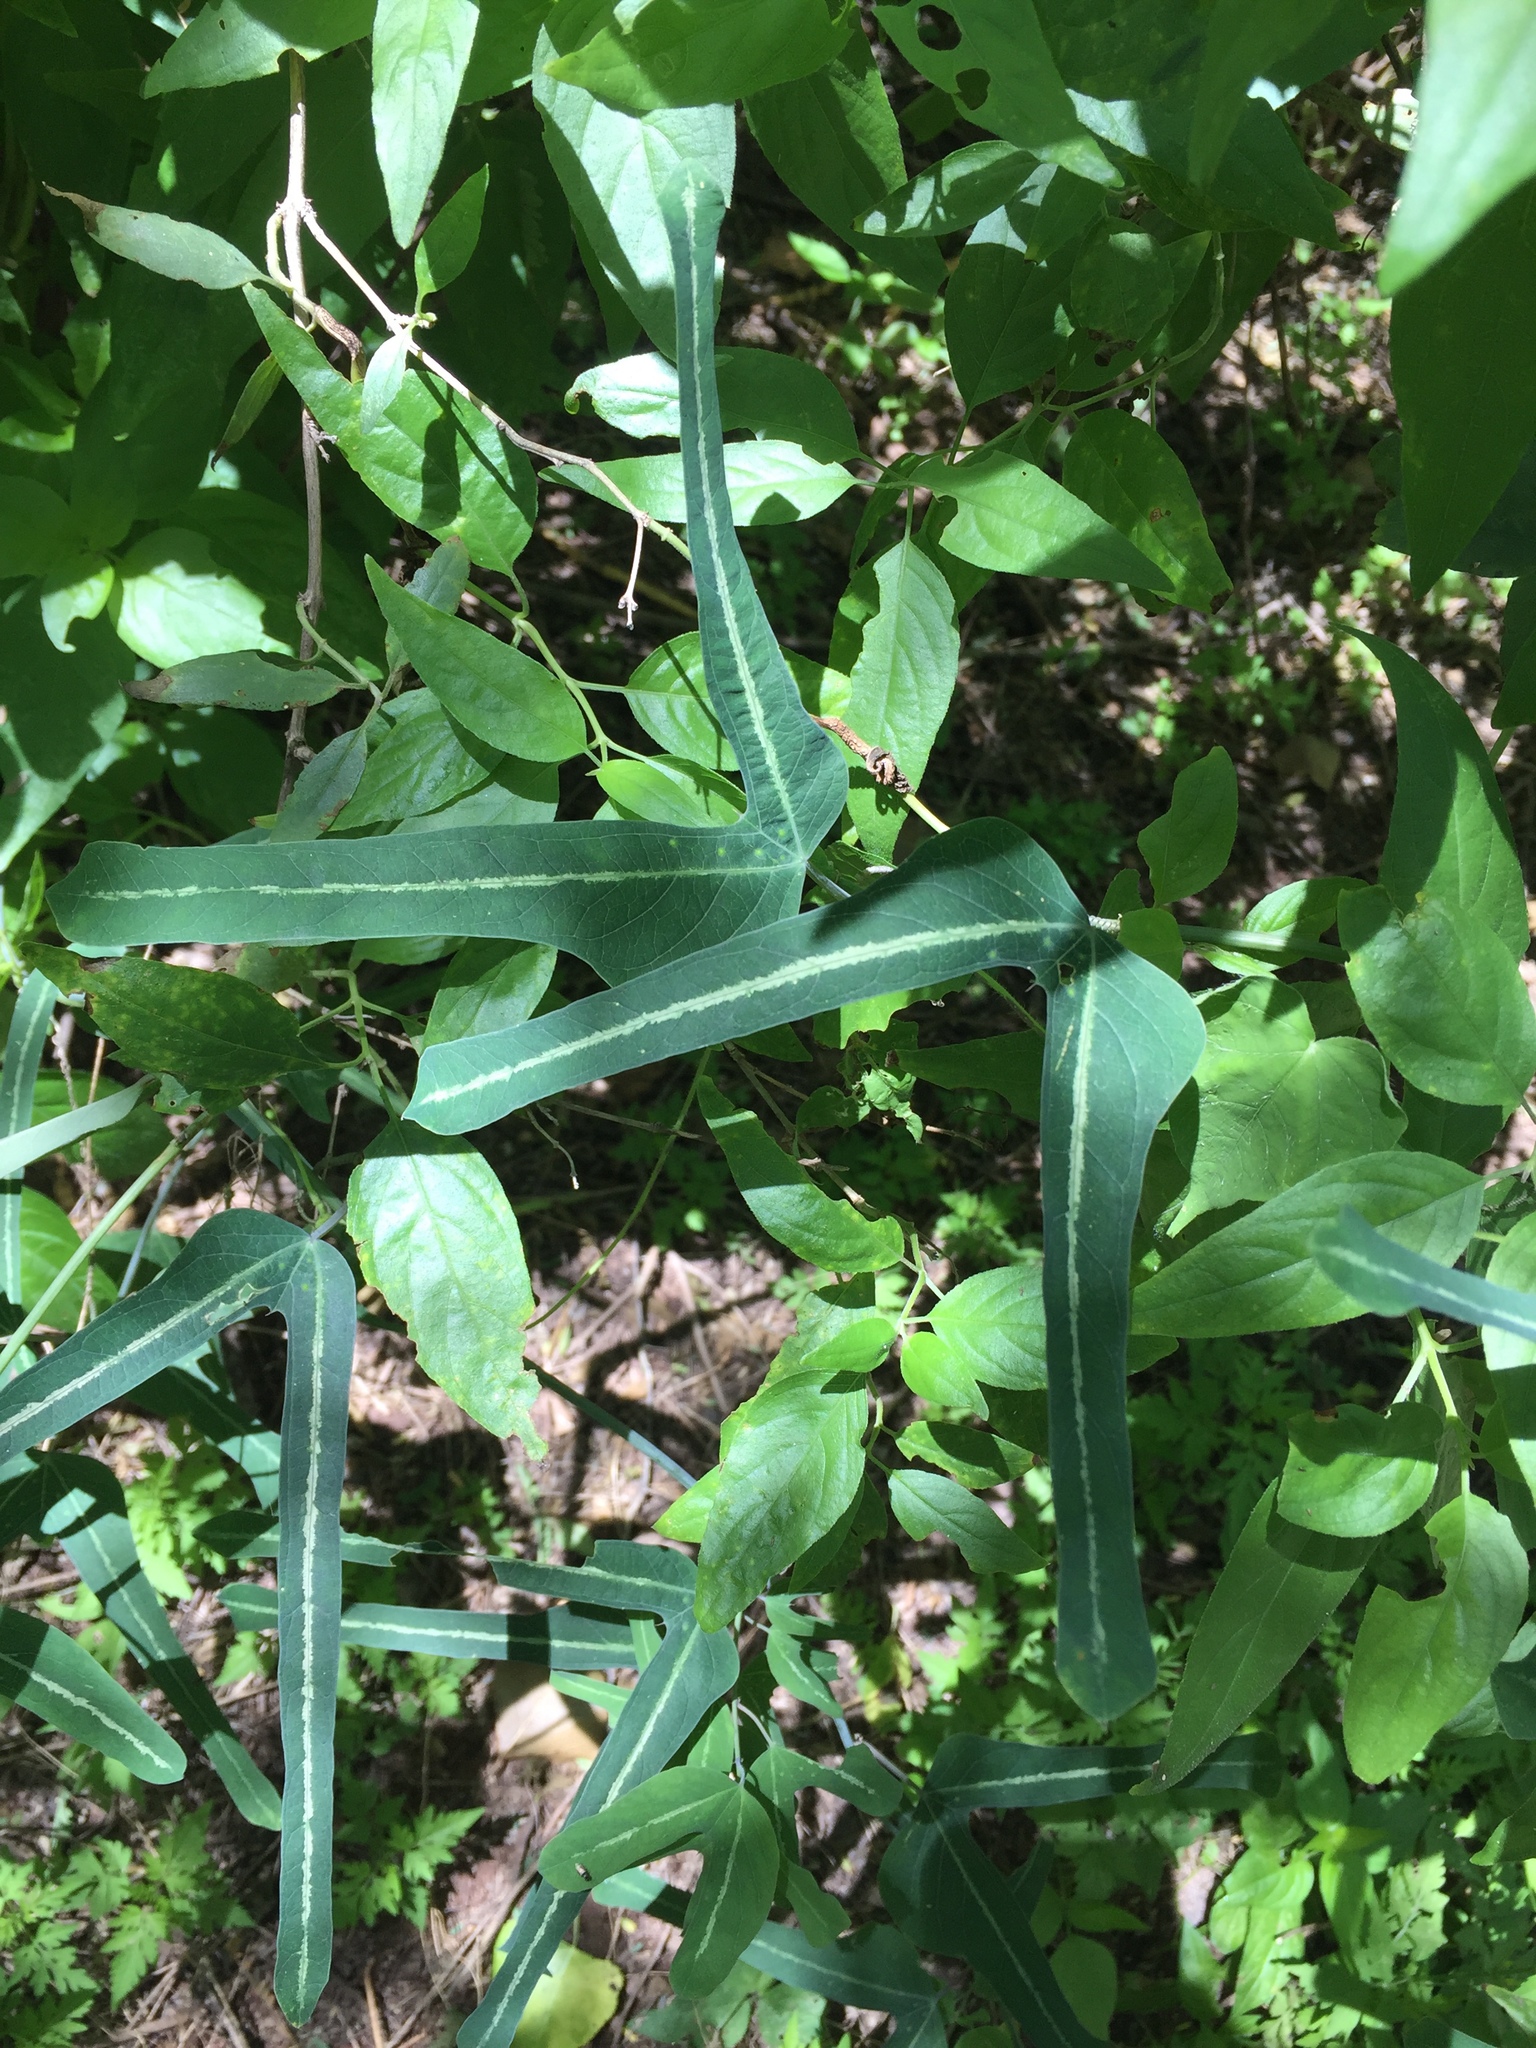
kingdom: Plantae
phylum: Tracheophyta
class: Magnoliopsida
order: Malpighiales
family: Passifloraceae
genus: Passiflora
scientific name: Passiflora mexicana
